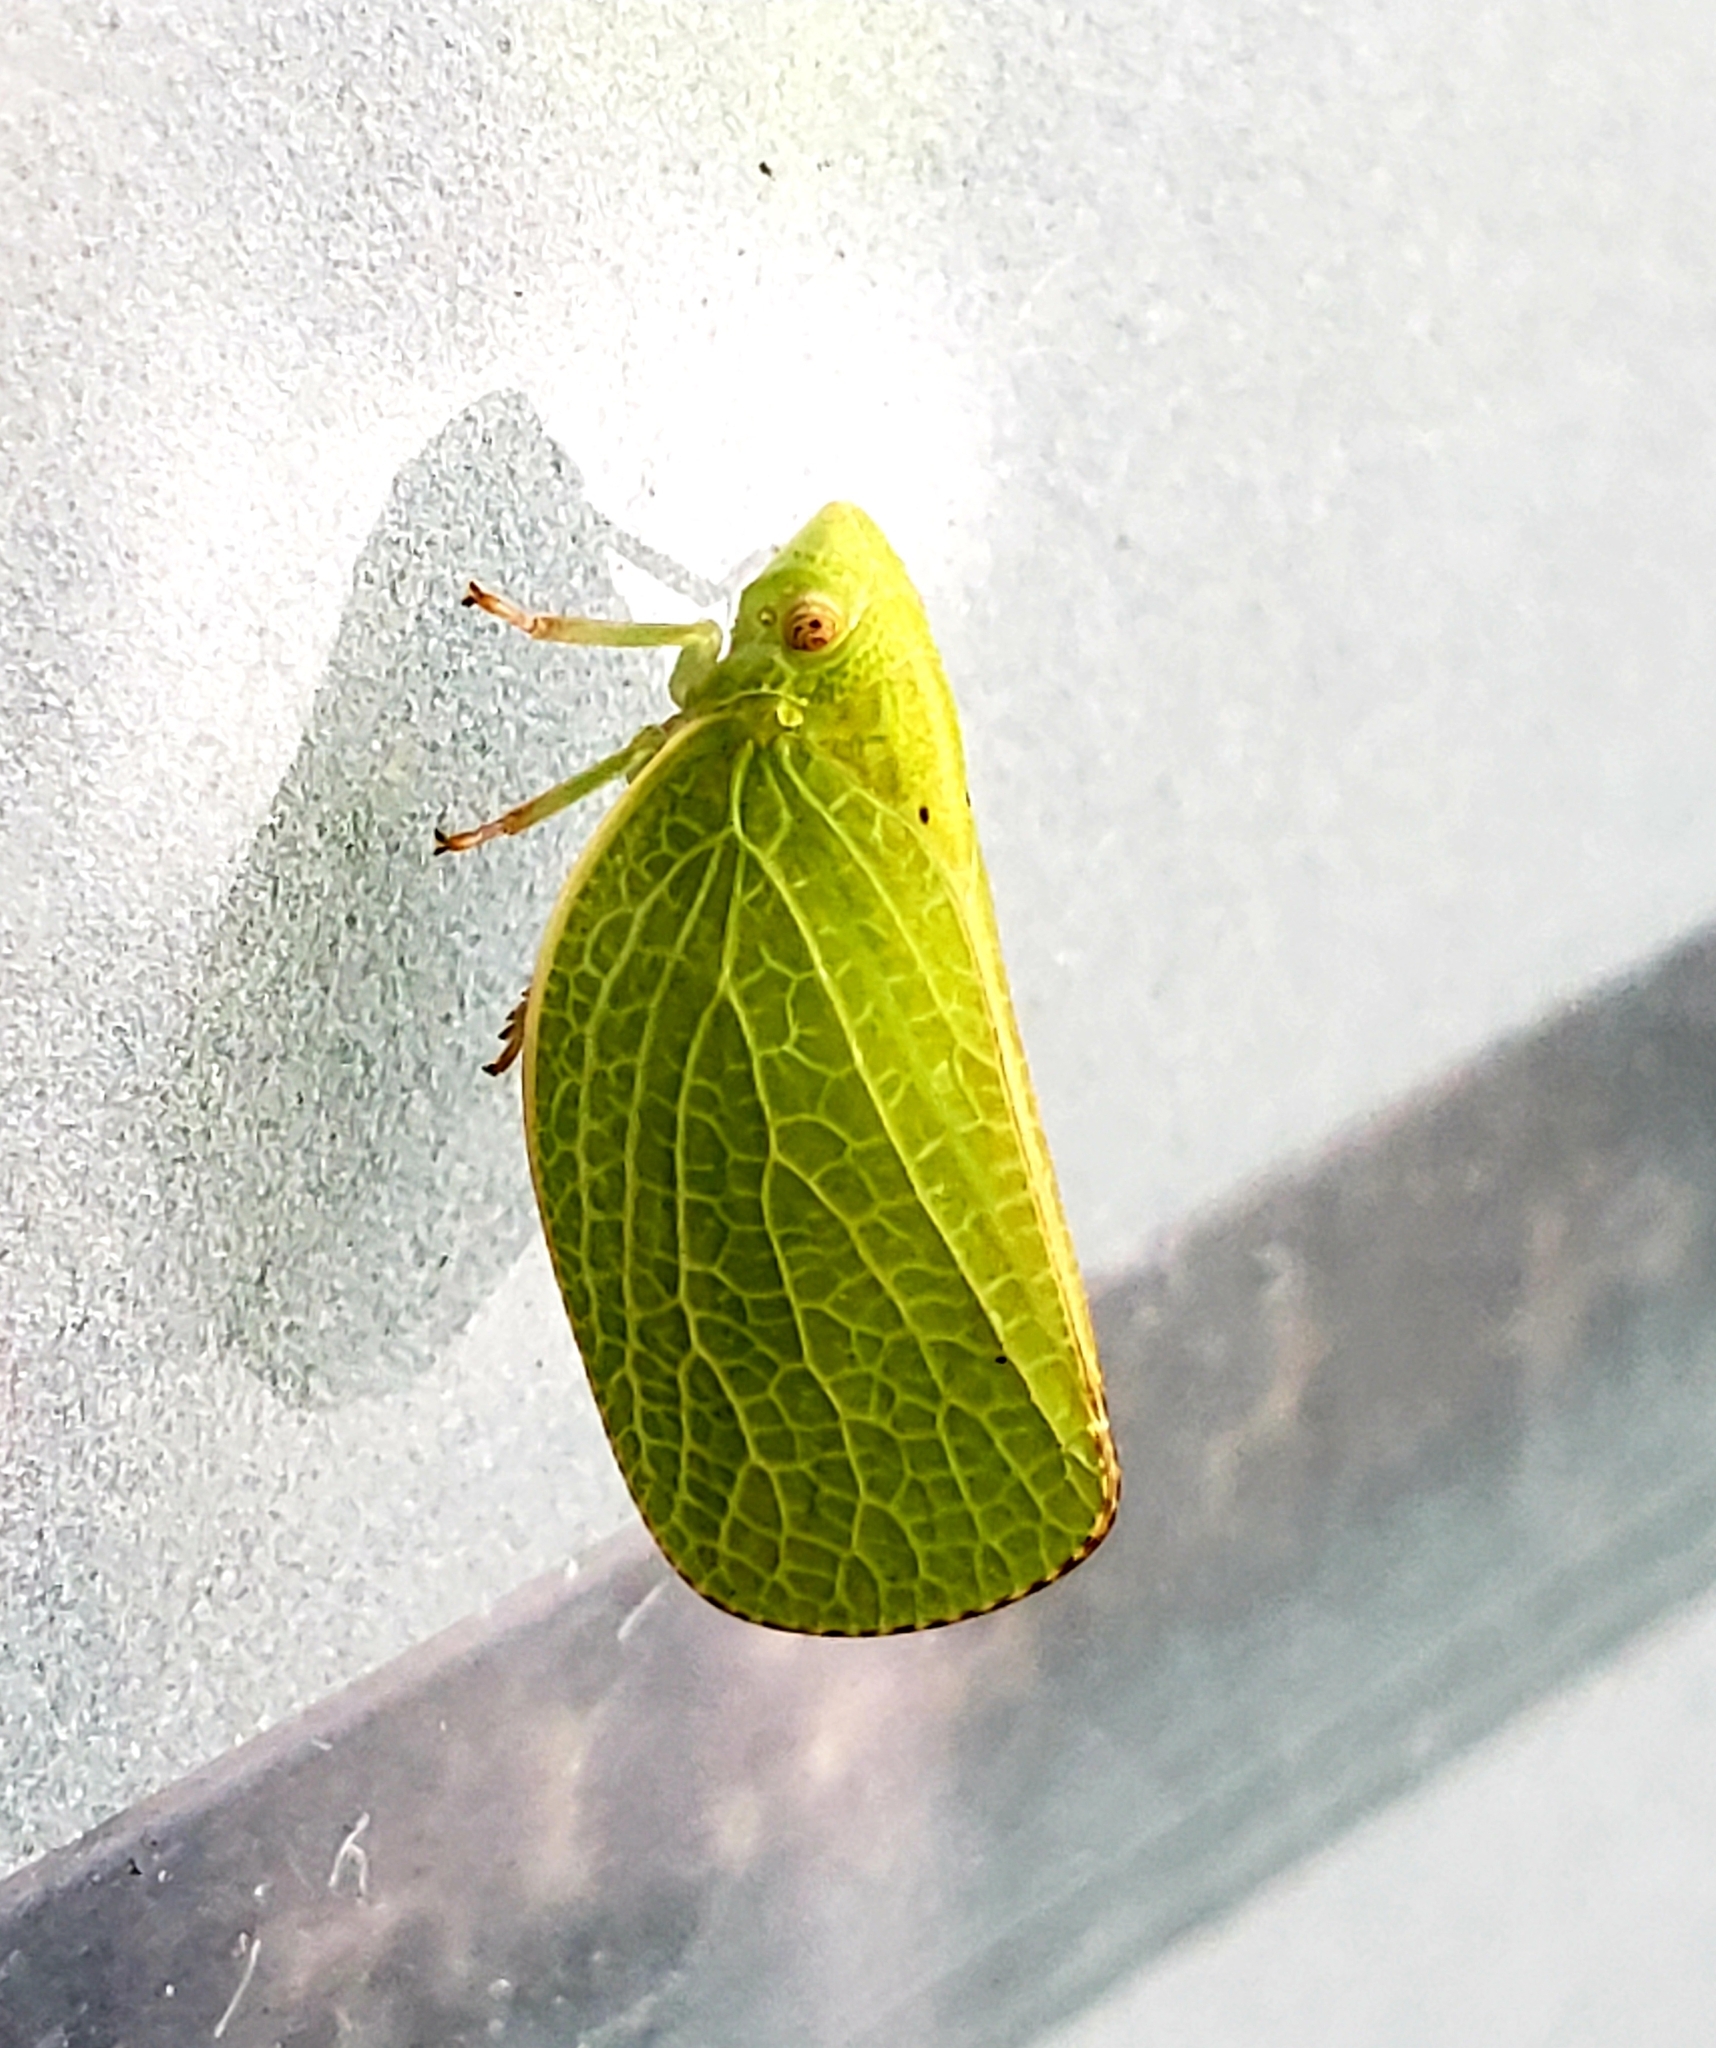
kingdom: Animalia
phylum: Arthropoda
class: Insecta
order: Hemiptera
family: Acanaloniidae
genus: Acanalonia
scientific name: Acanalonia conica
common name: Green cone-headed planthopper
